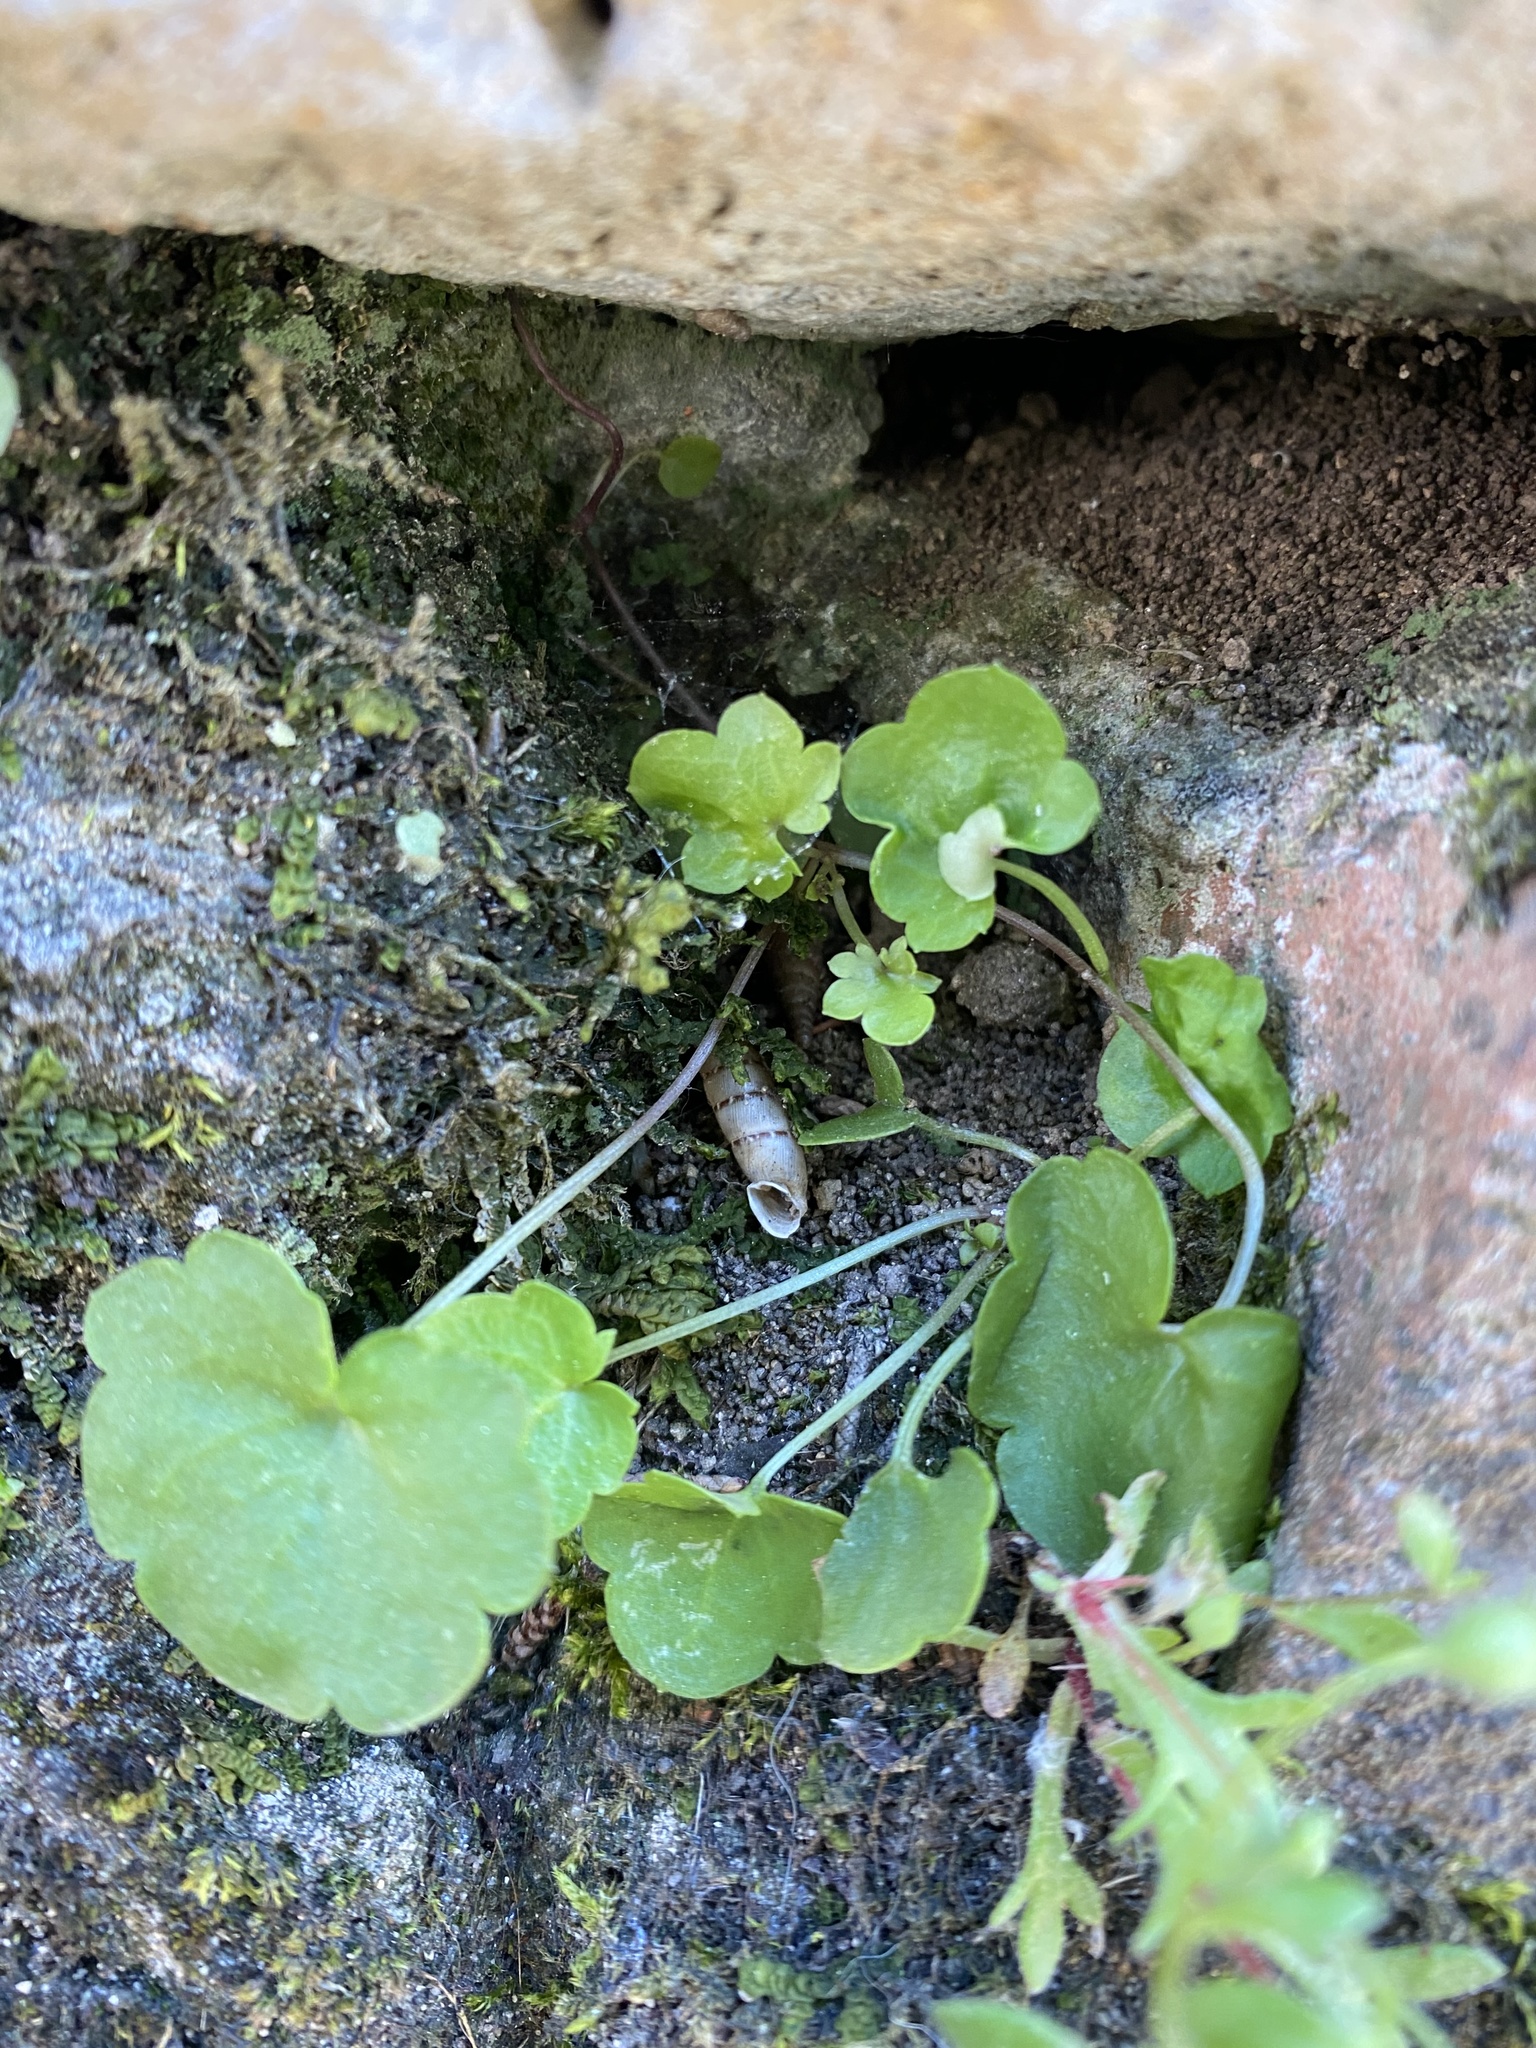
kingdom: Animalia
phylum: Mollusca
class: Gastropoda
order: Stylommatophora
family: Clausiliidae
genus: Papillifera
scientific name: Papillifera papillaris
